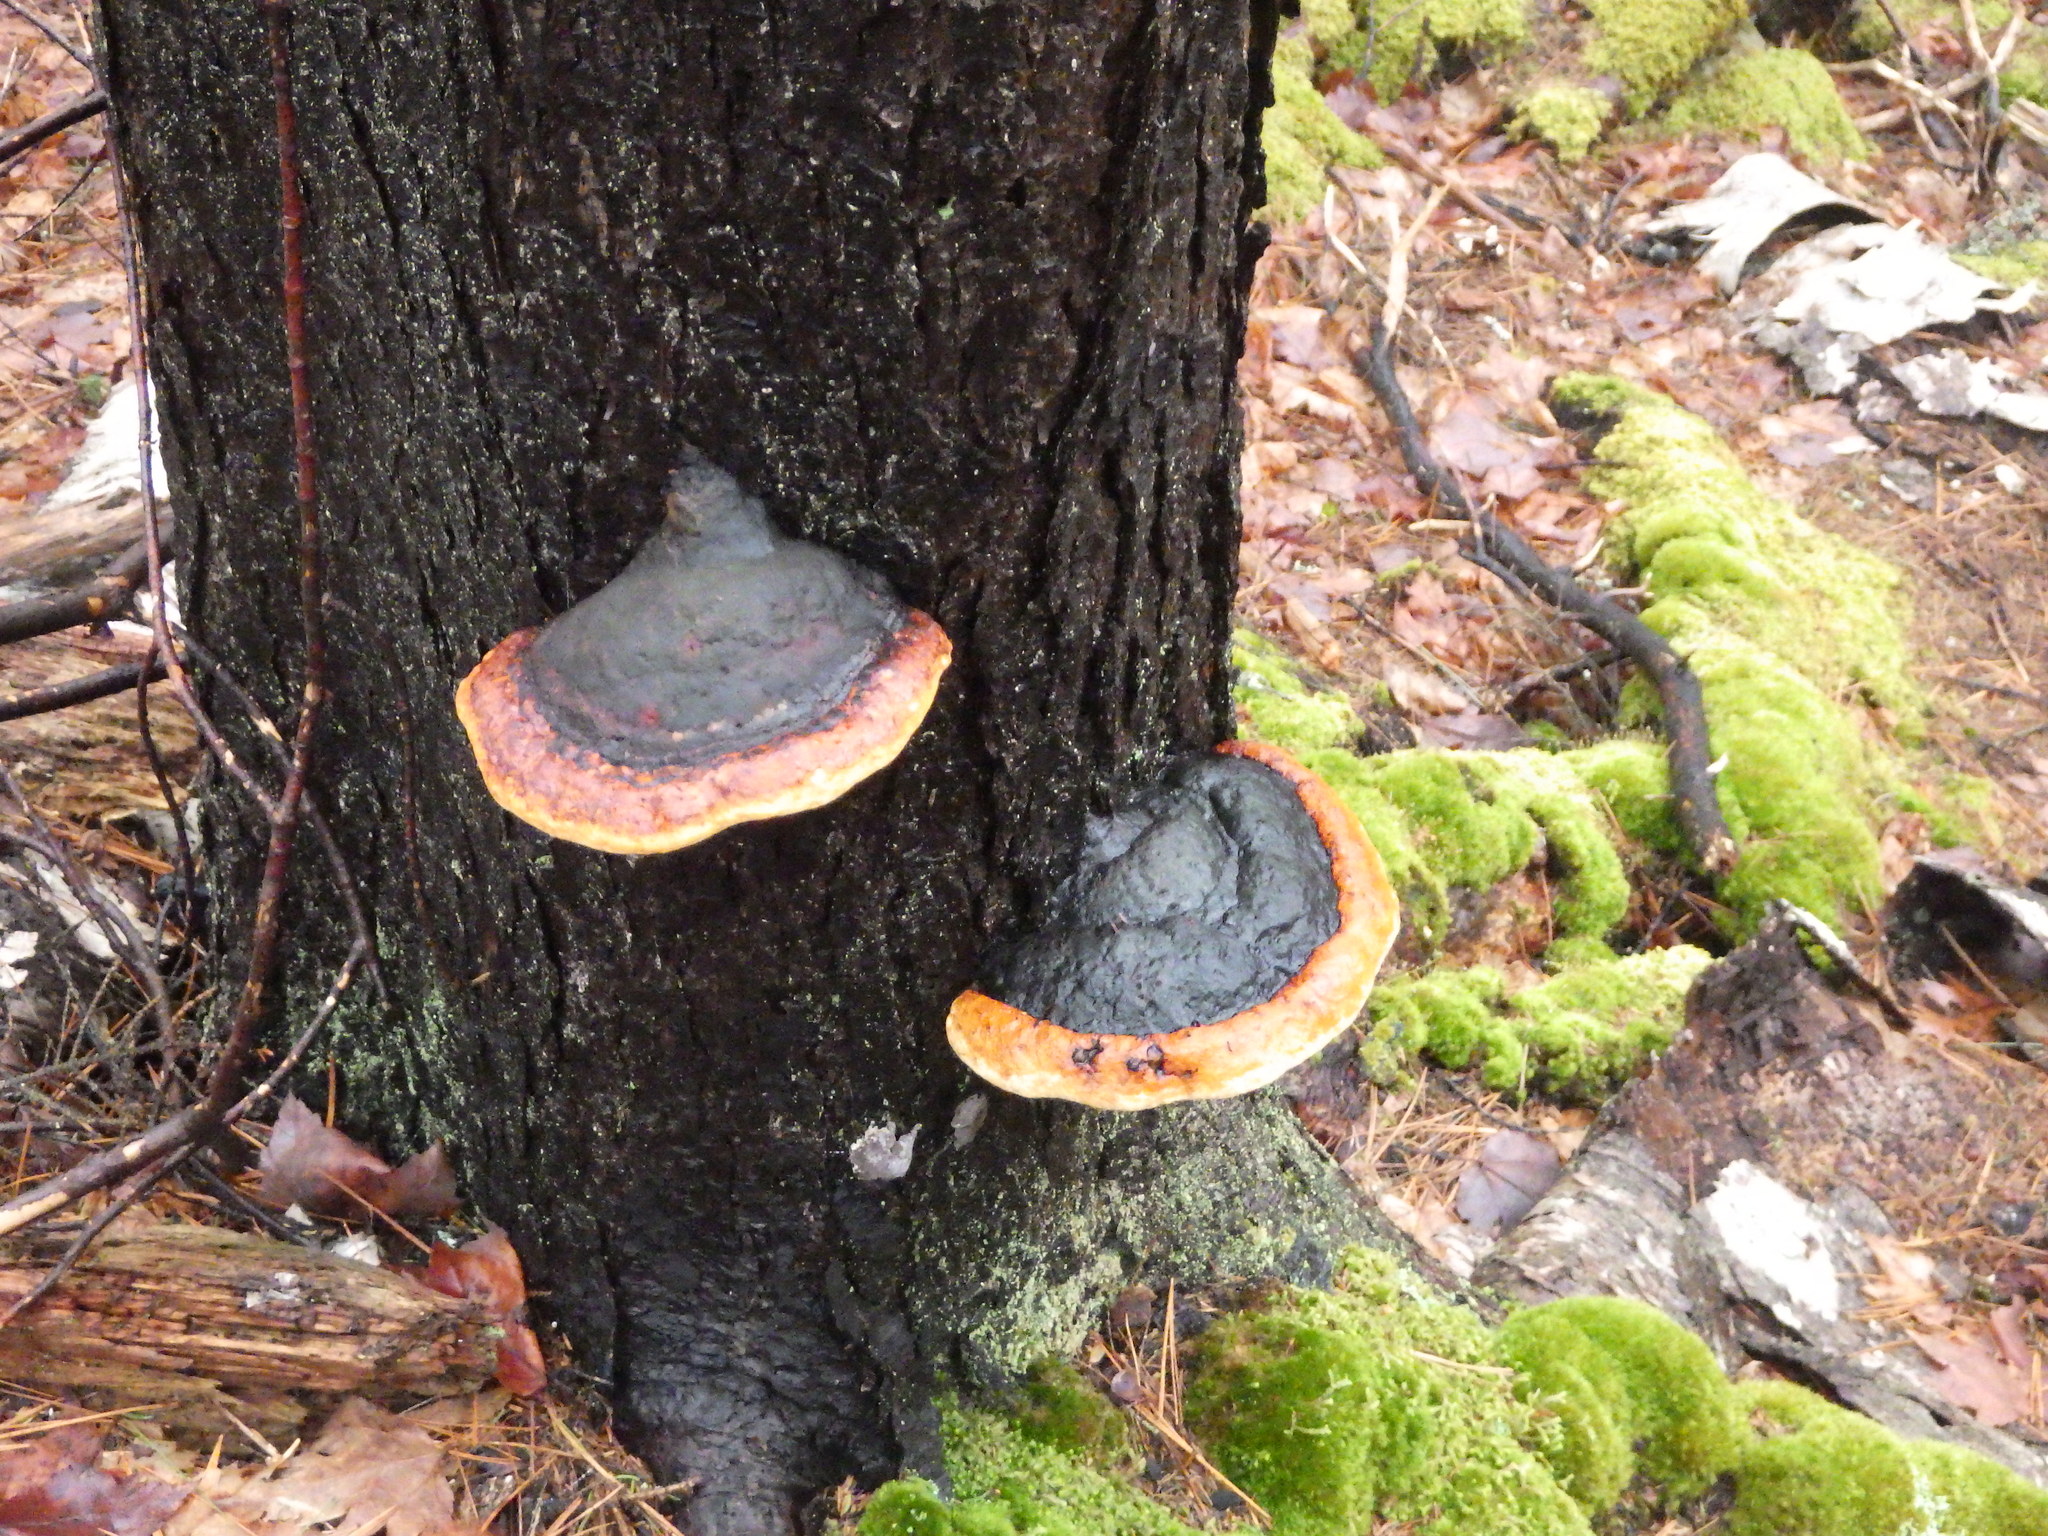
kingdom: Fungi
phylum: Basidiomycota
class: Agaricomycetes
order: Polyporales
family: Fomitopsidaceae
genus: Fomitopsis
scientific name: Fomitopsis mounceae
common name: Northern red belt
